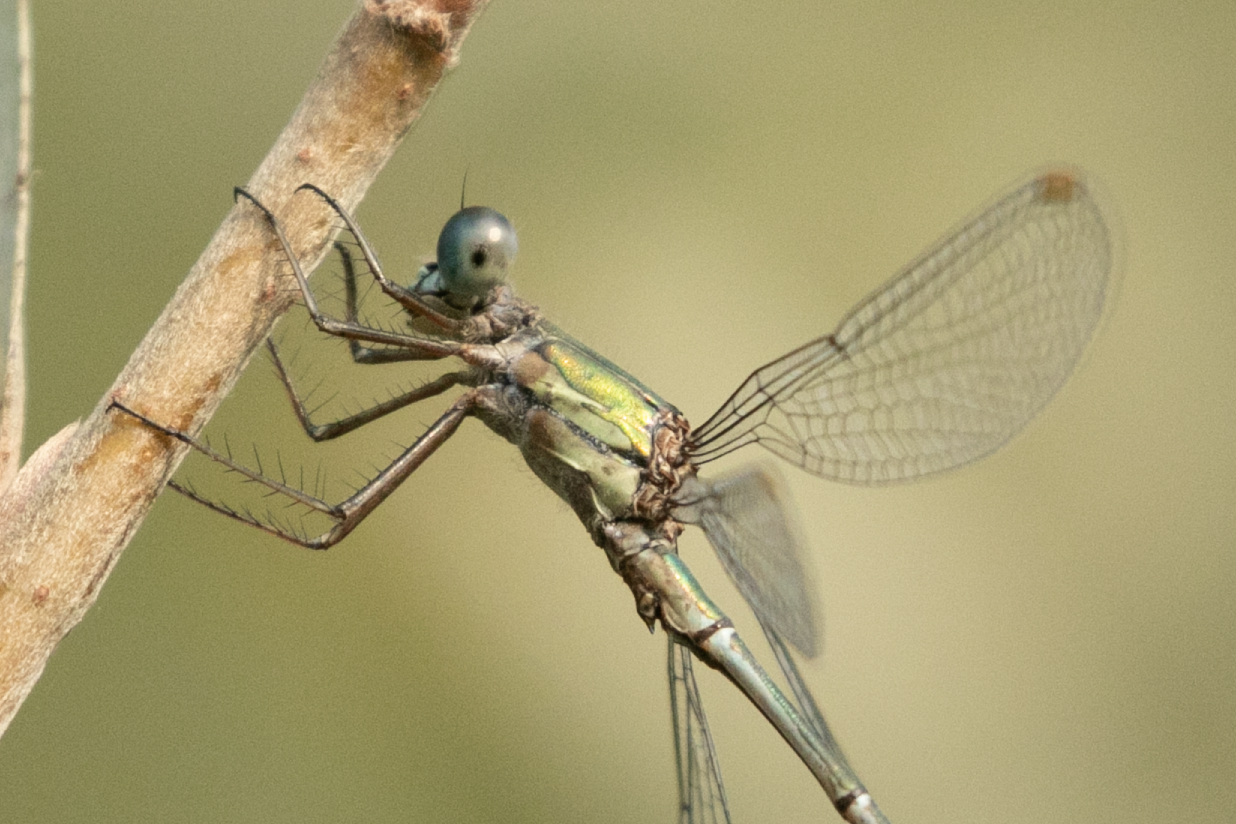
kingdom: Animalia
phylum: Arthropoda
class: Insecta
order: Odonata
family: Lestidae
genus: Chalcolestes
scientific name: Chalcolestes viridis
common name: Green emerald damselfly
